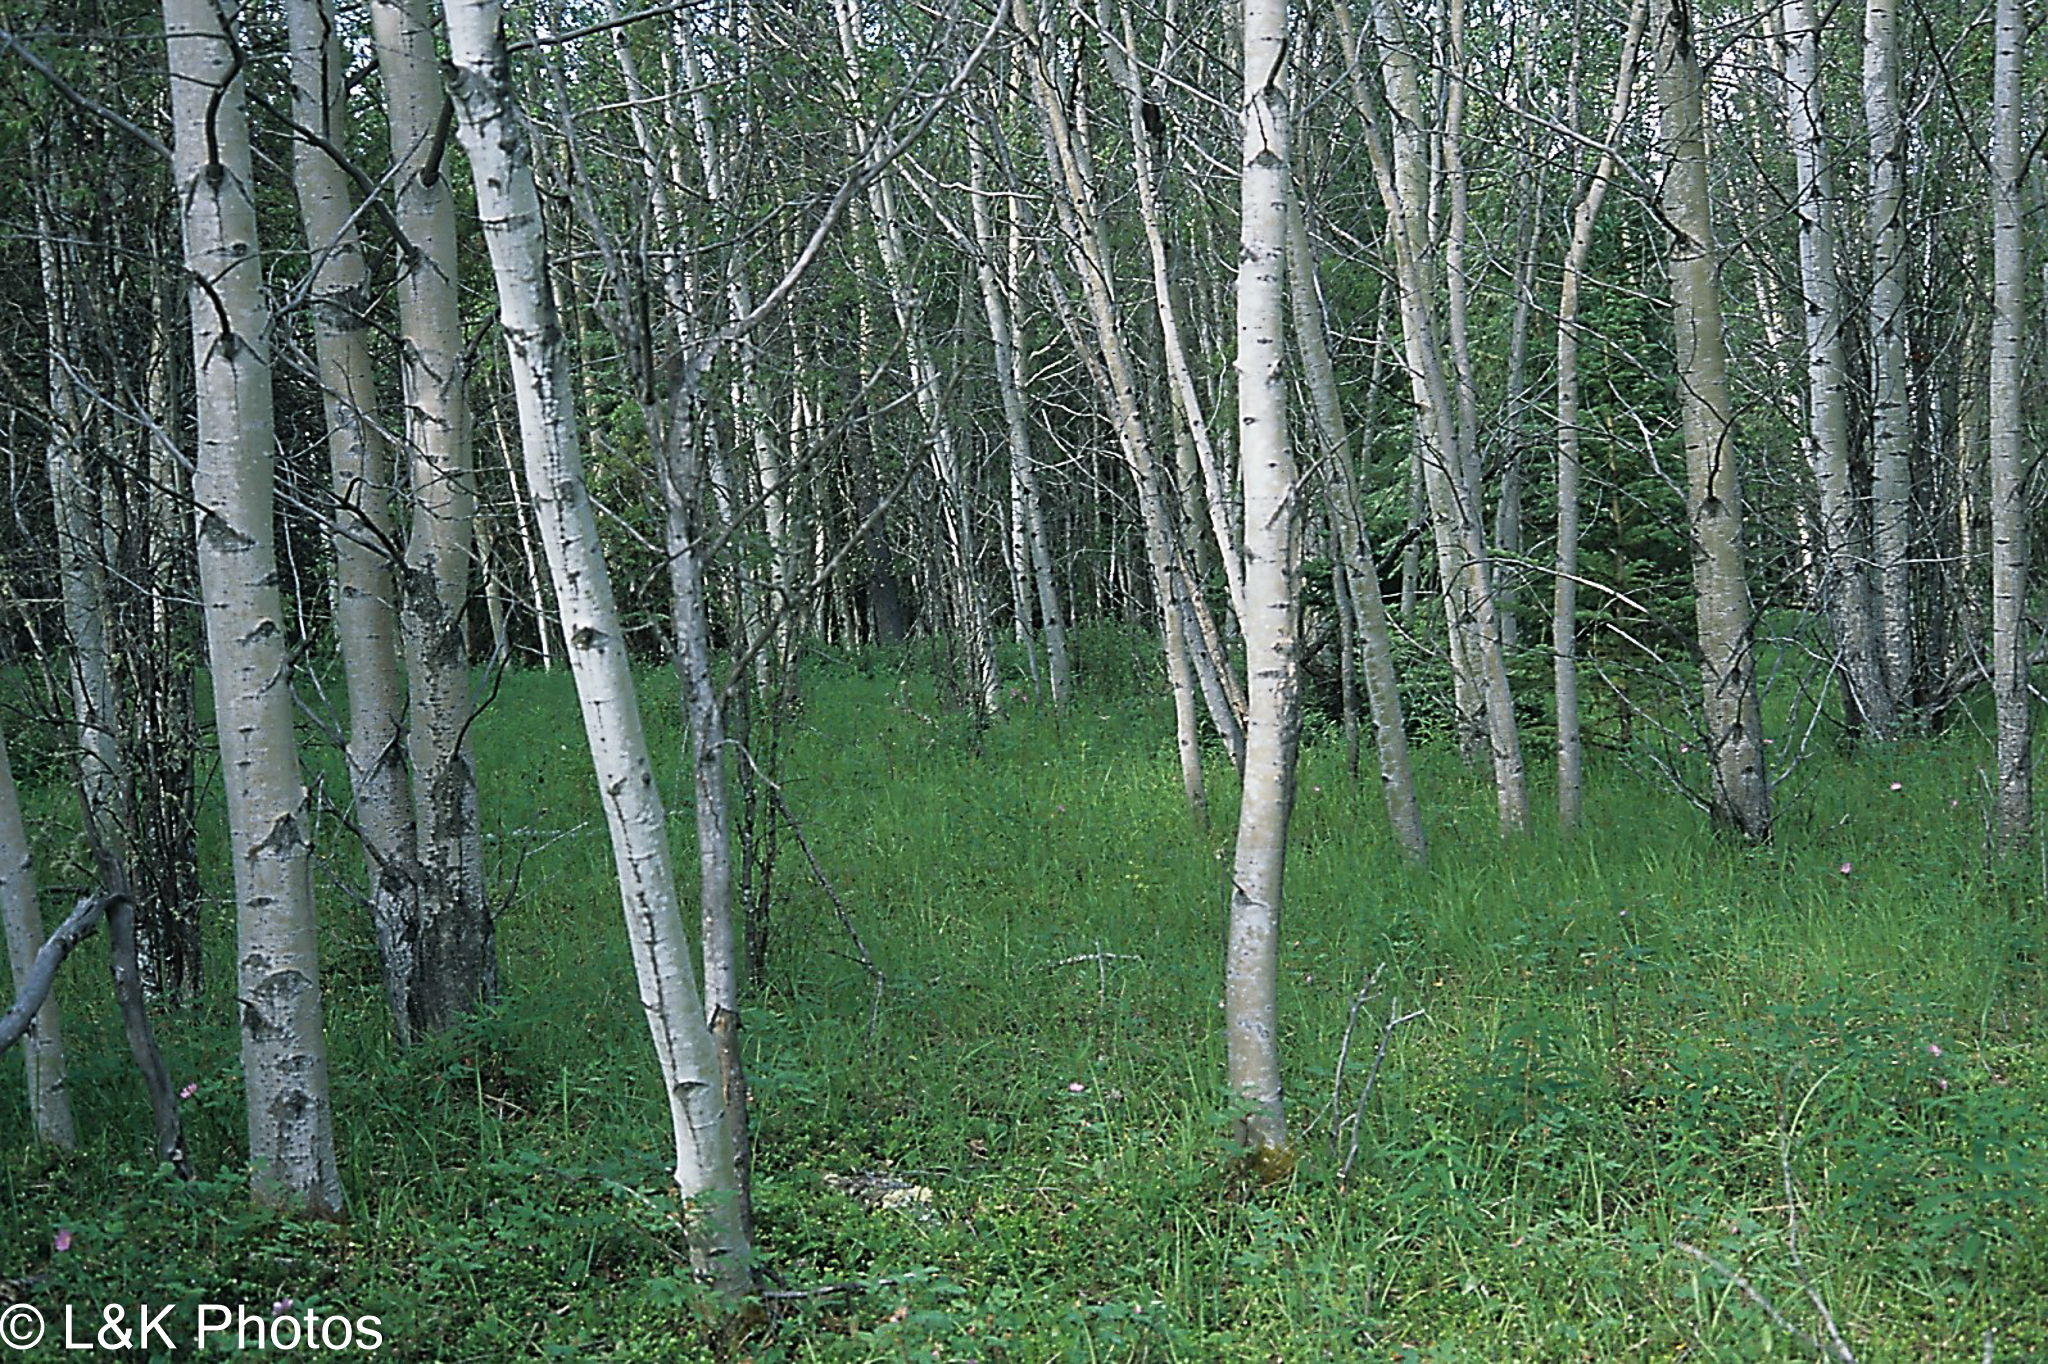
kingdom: Plantae
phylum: Tracheophyta
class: Magnoliopsida
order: Malpighiales
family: Salicaceae
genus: Populus
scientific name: Populus tremuloides
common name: Quaking aspen
